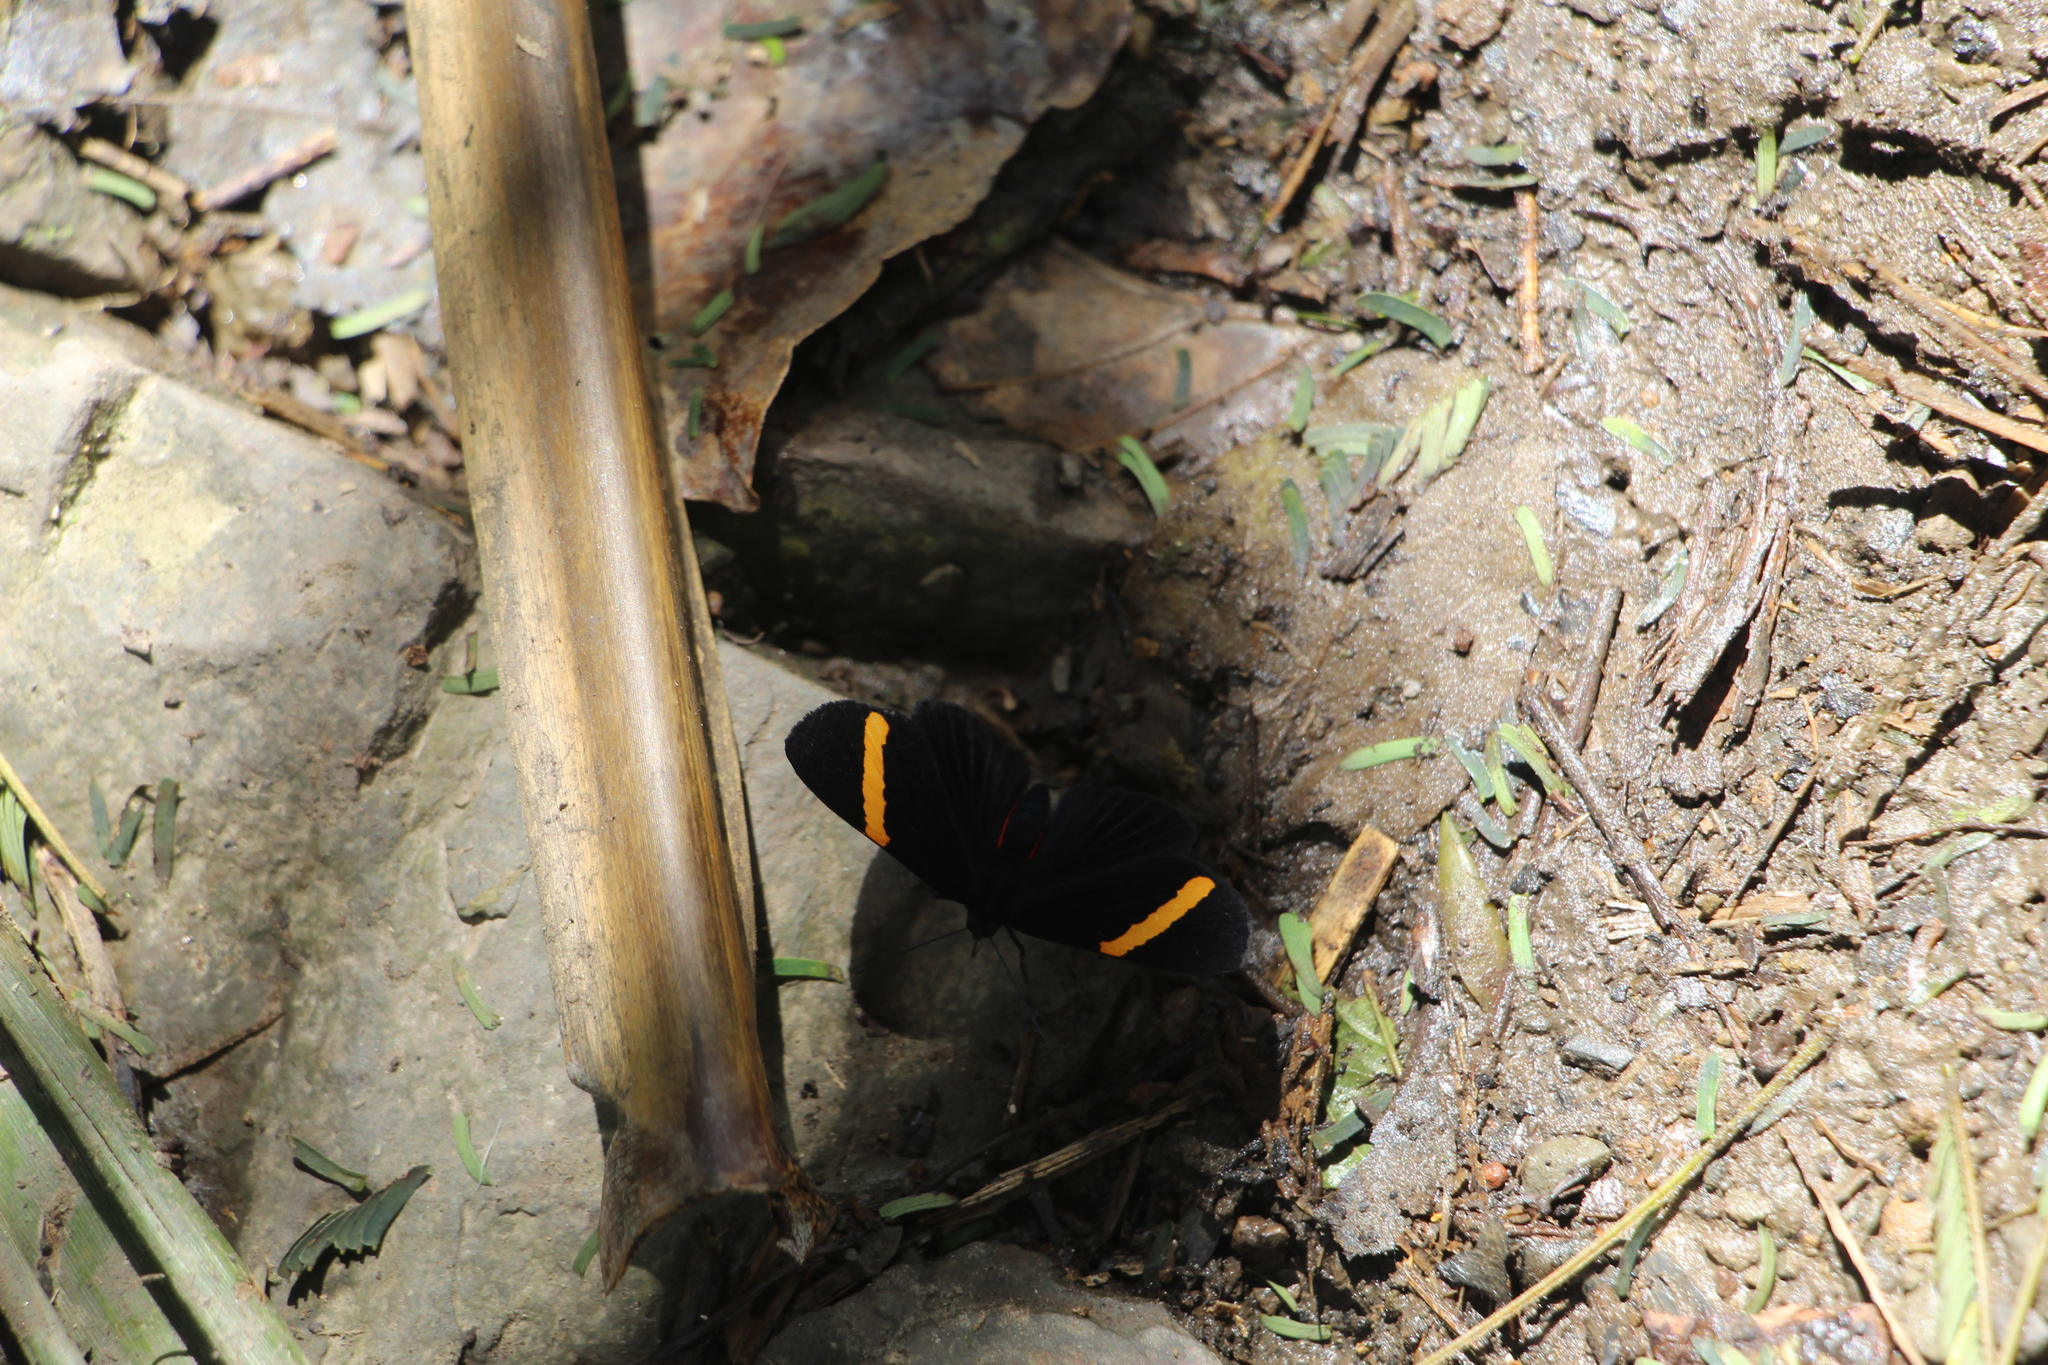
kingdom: Animalia
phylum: Arthropoda
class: Insecta
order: Lepidoptera
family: Lycaenidae
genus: Melanis
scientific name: Melanis
